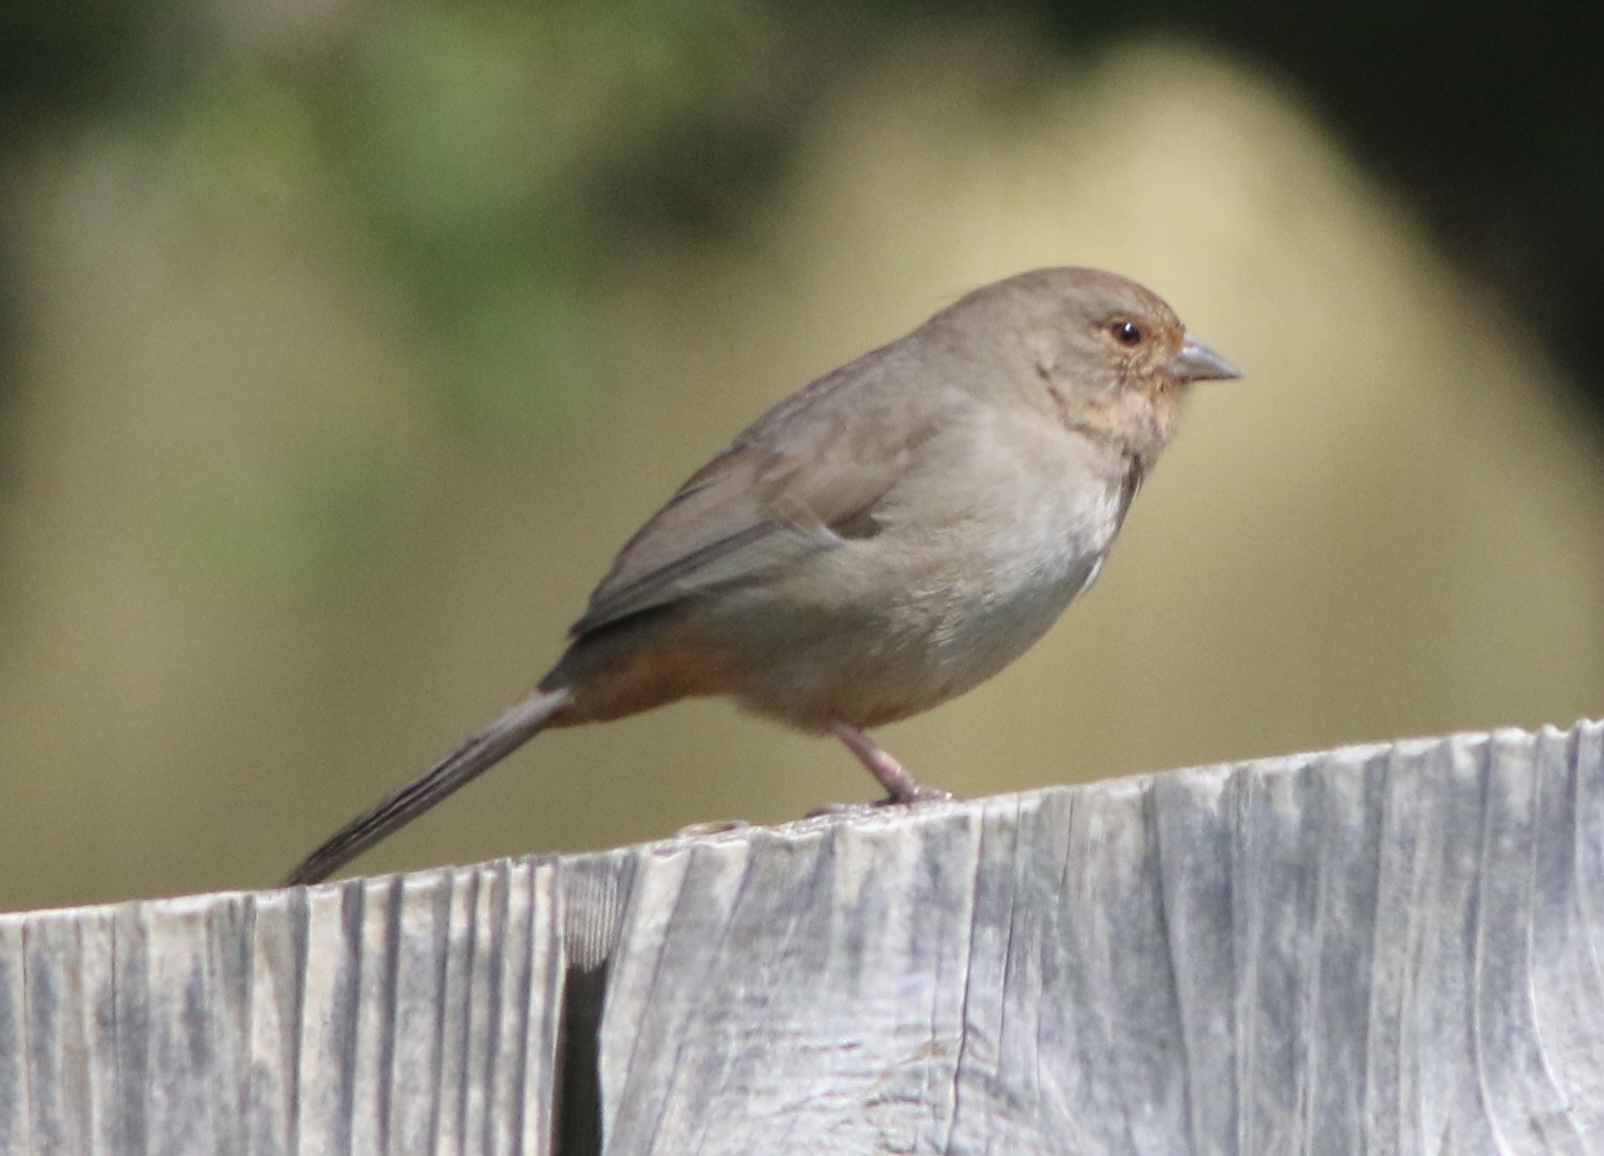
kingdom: Animalia
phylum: Chordata
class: Aves
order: Passeriformes
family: Passerellidae
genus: Melozone
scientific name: Melozone crissalis
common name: California towhee
